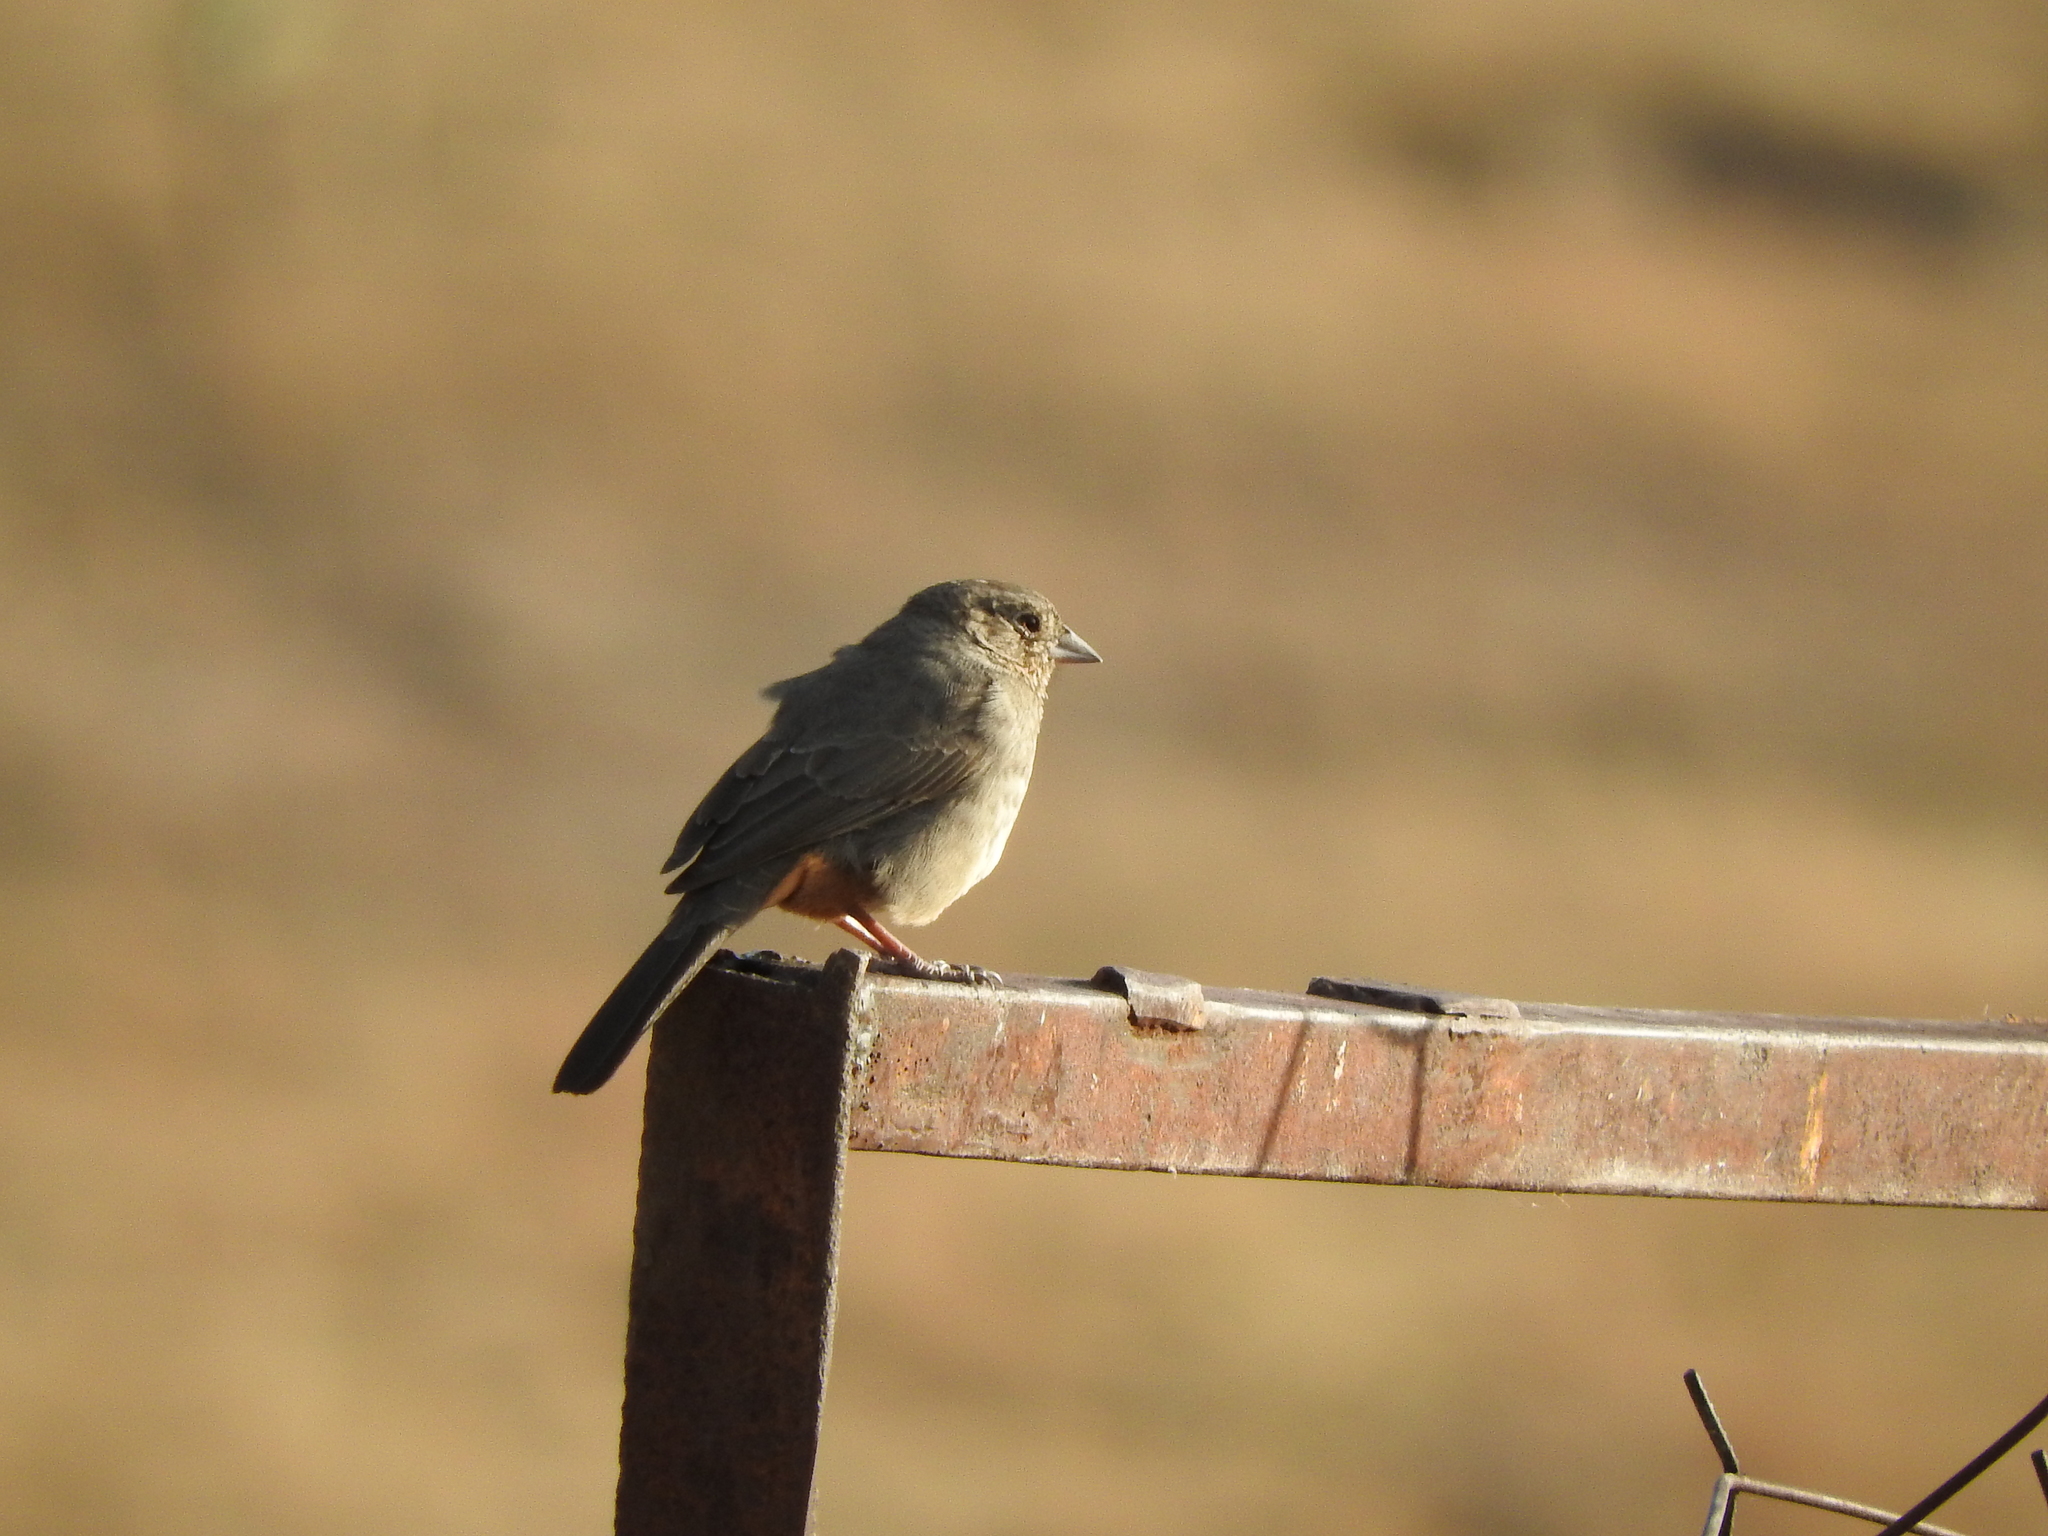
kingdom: Animalia
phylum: Chordata
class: Aves
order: Passeriformes
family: Passerellidae
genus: Melozone
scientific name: Melozone fusca
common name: Canyon towhee
